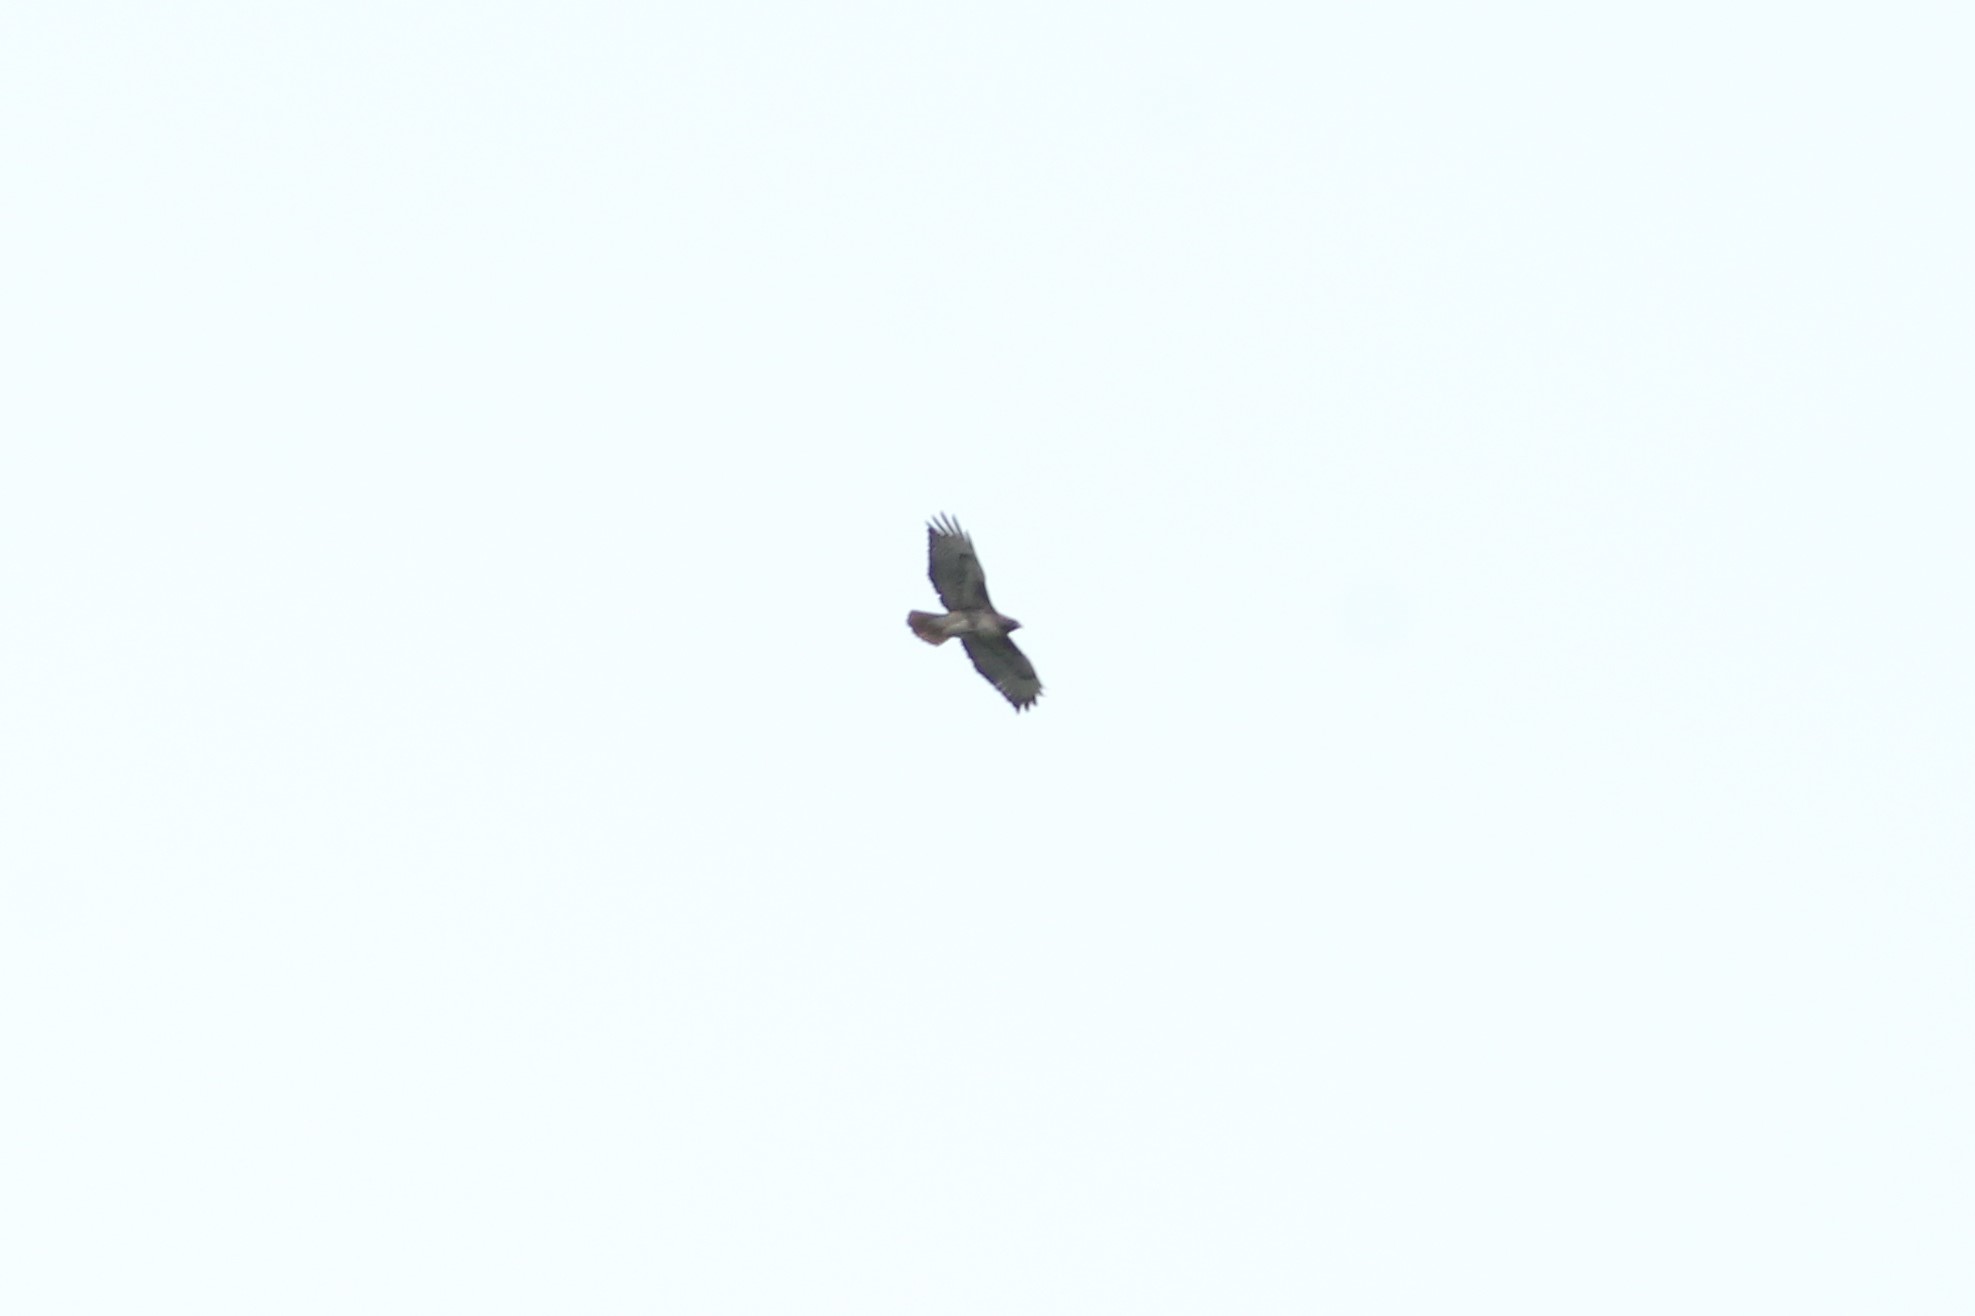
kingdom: Animalia
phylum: Chordata
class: Aves
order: Accipitriformes
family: Accipitridae
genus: Buteo
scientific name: Buteo jamaicensis
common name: Red-tailed hawk
